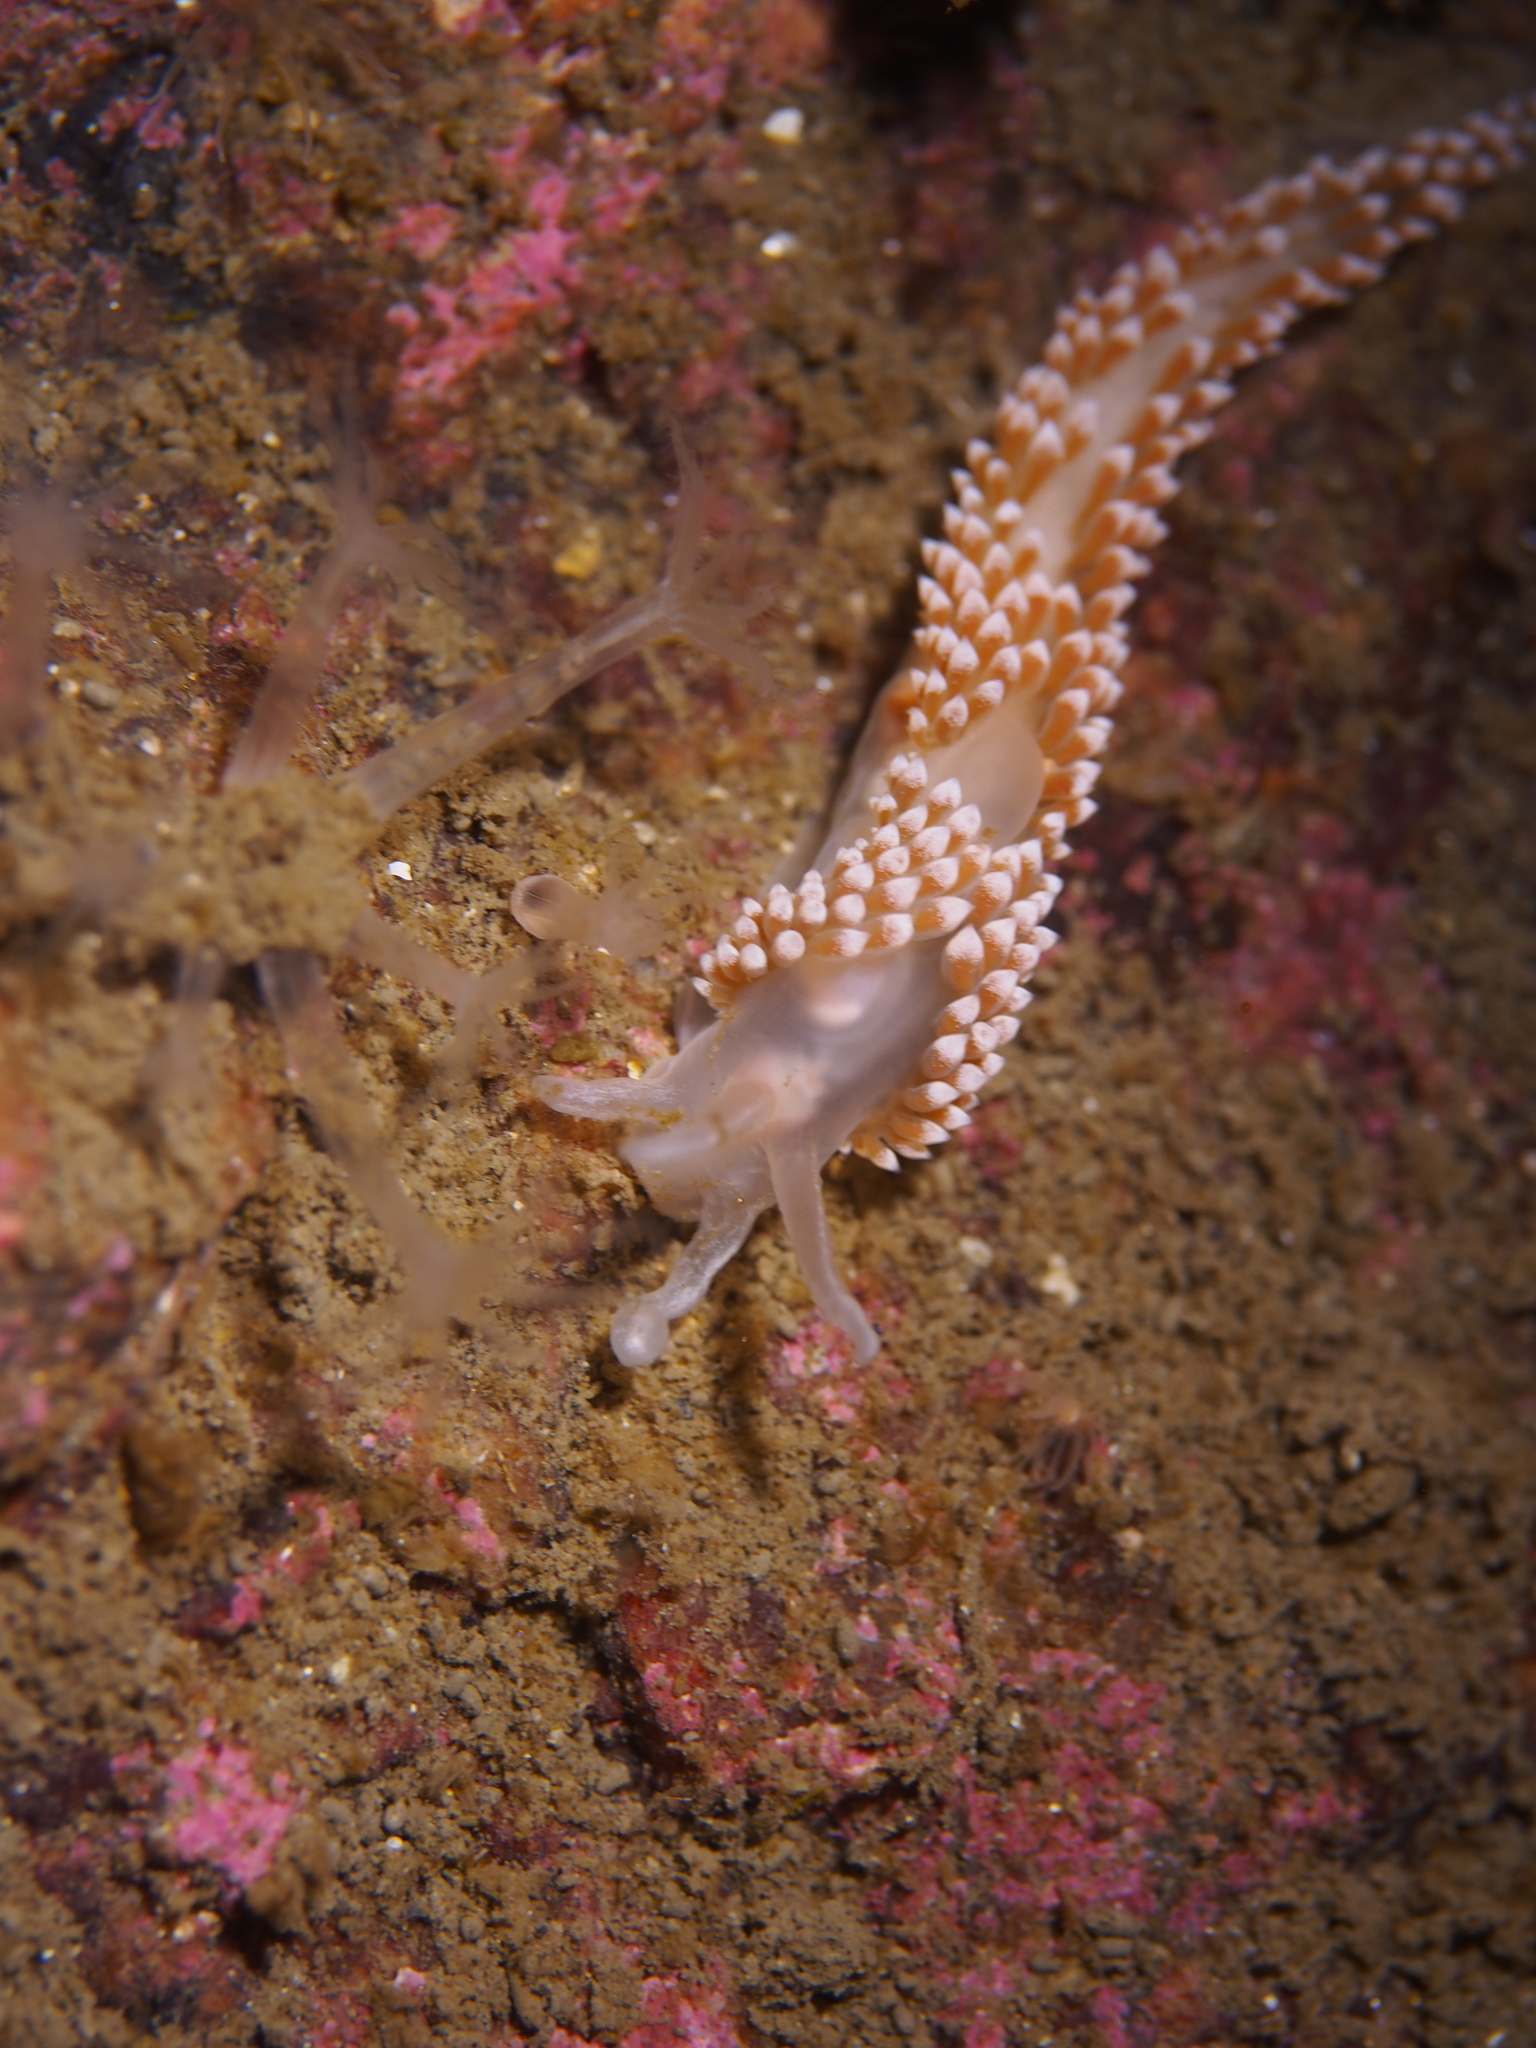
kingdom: Animalia
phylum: Mollusca
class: Gastropoda
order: Nudibranchia
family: Coryphellidae
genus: Coryphella
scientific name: Coryphella verrucosa
